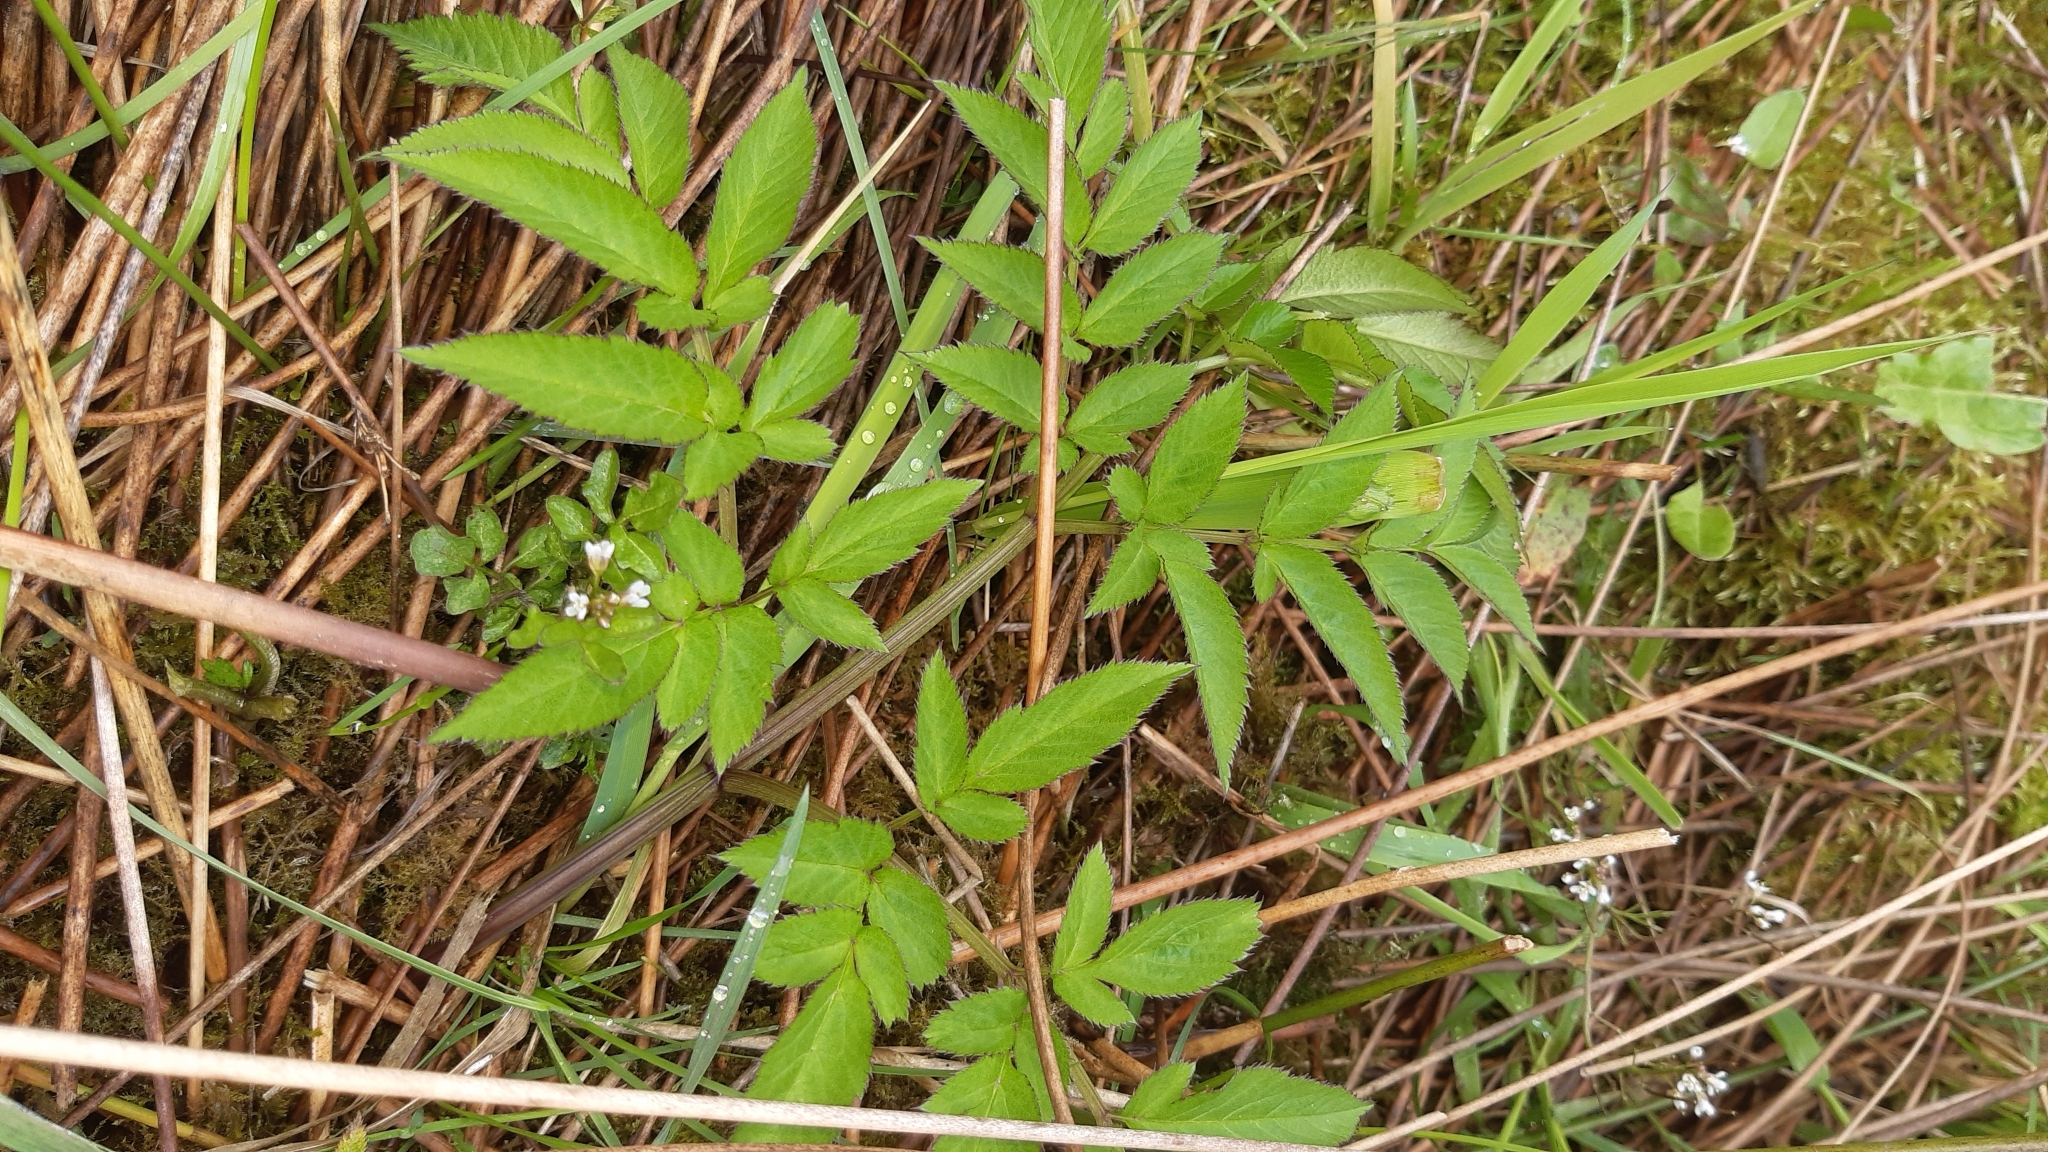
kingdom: Plantae
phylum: Tracheophyta
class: Magnoliopsida
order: Apiales
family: Apiaceae
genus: Angelica
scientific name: Angelica sylvestris
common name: Wild angelica
